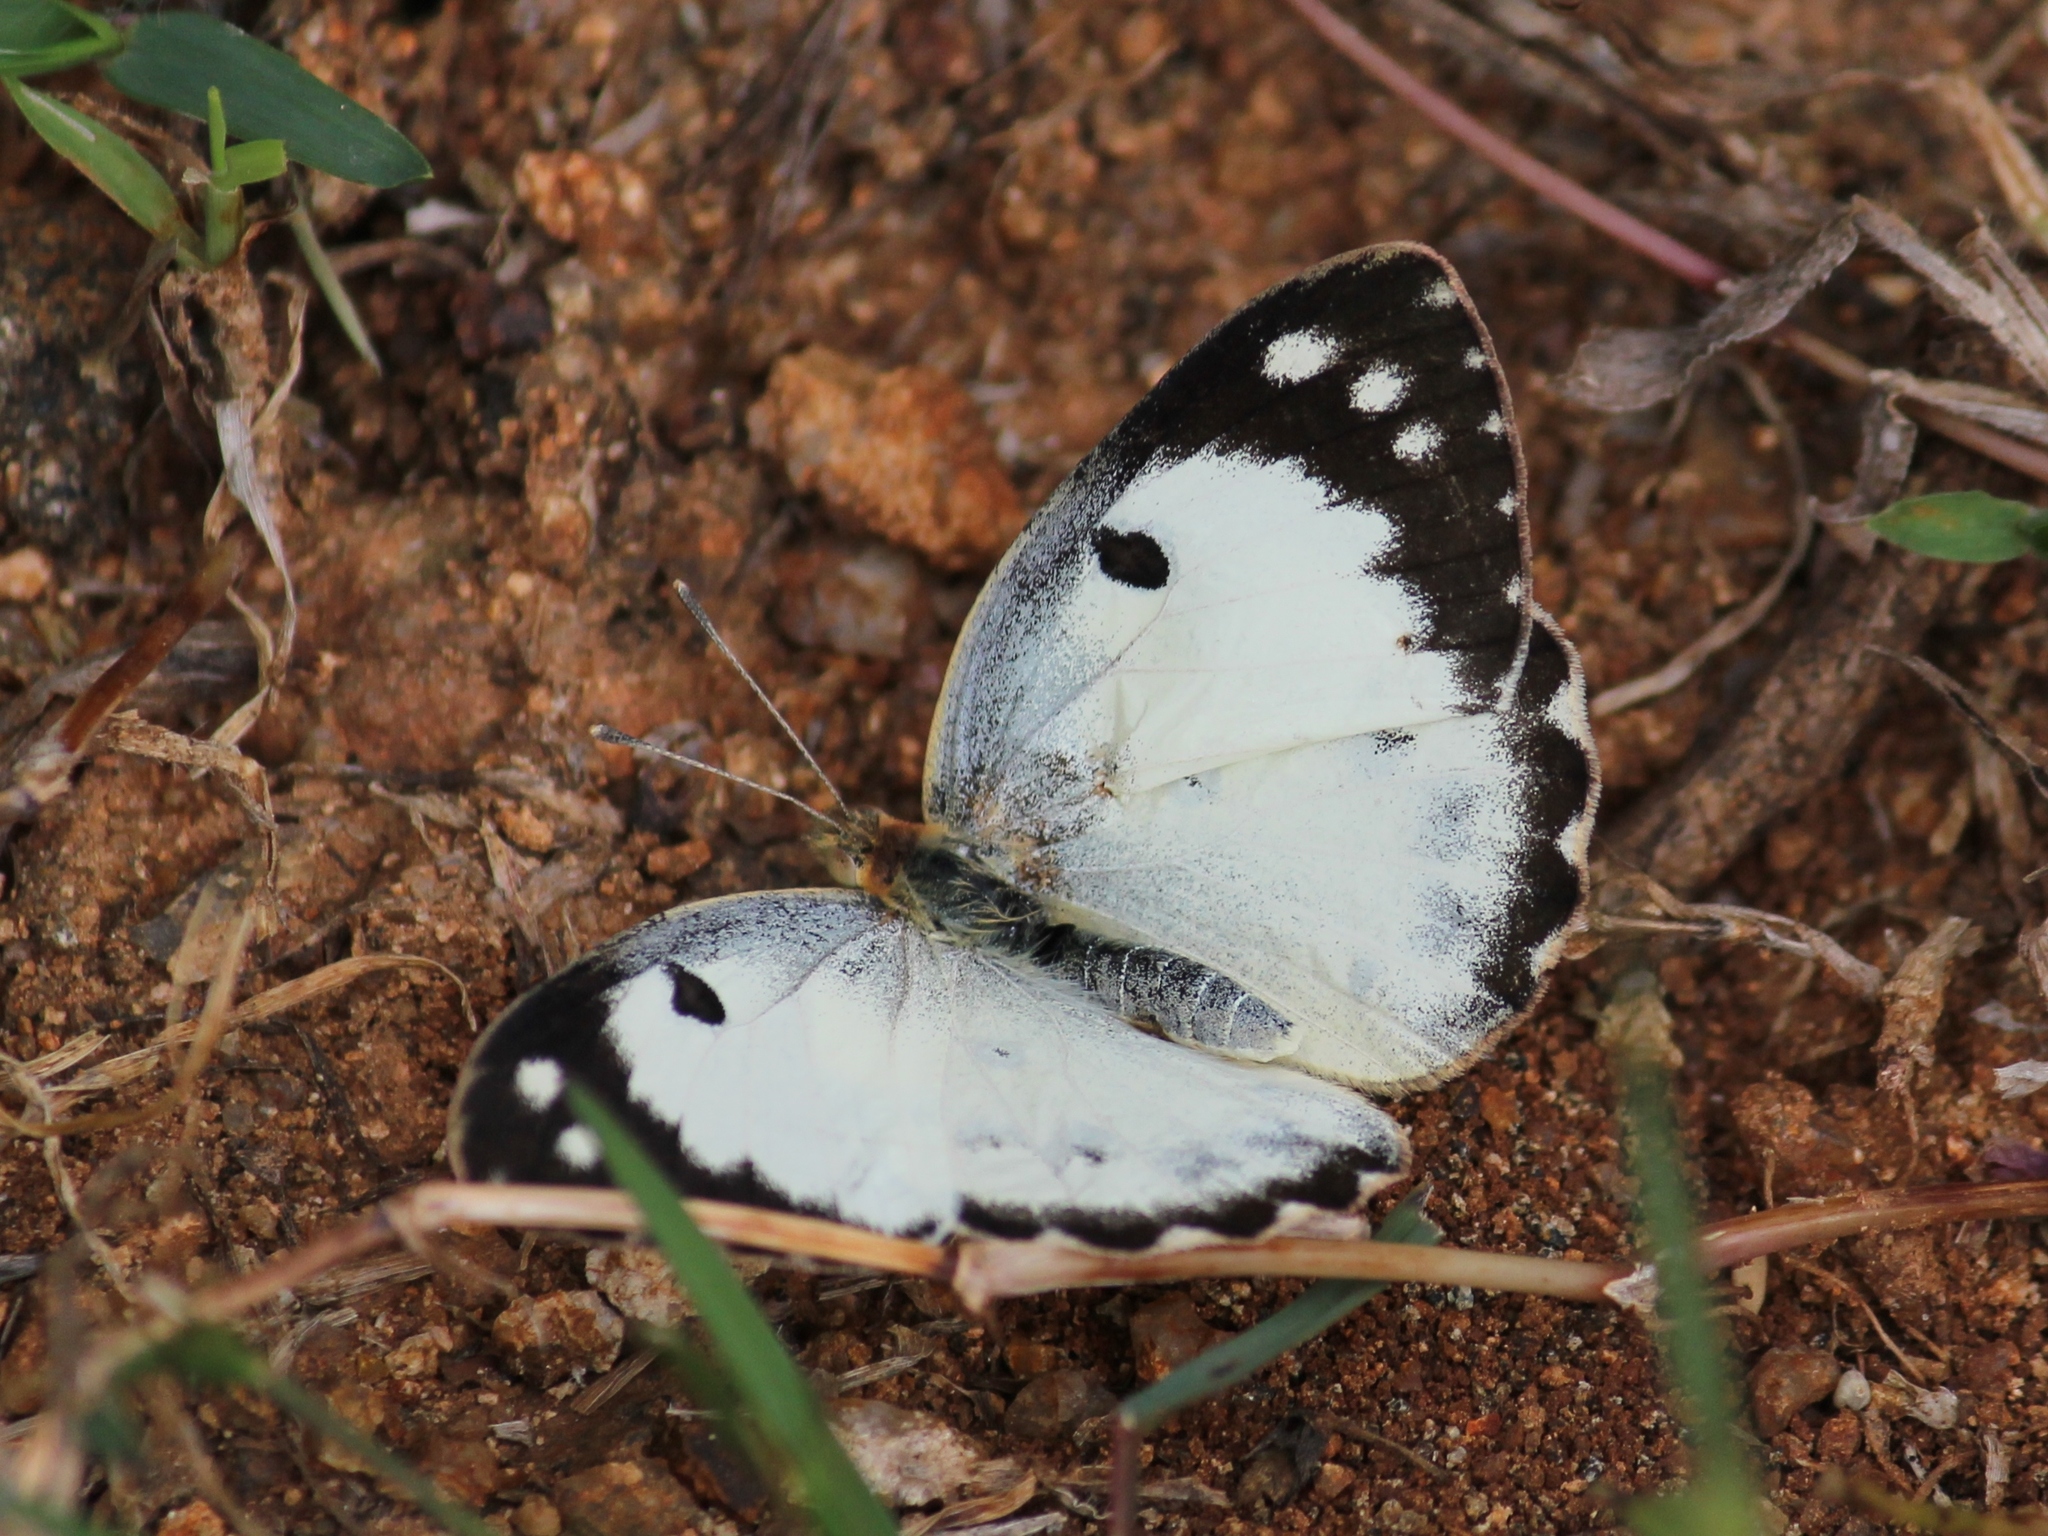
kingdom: Animalia
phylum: Arthropoda
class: Insecta
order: Lepidoptera
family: Pieridae
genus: Colotis
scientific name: Colotis fausta
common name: Large salmon arab
